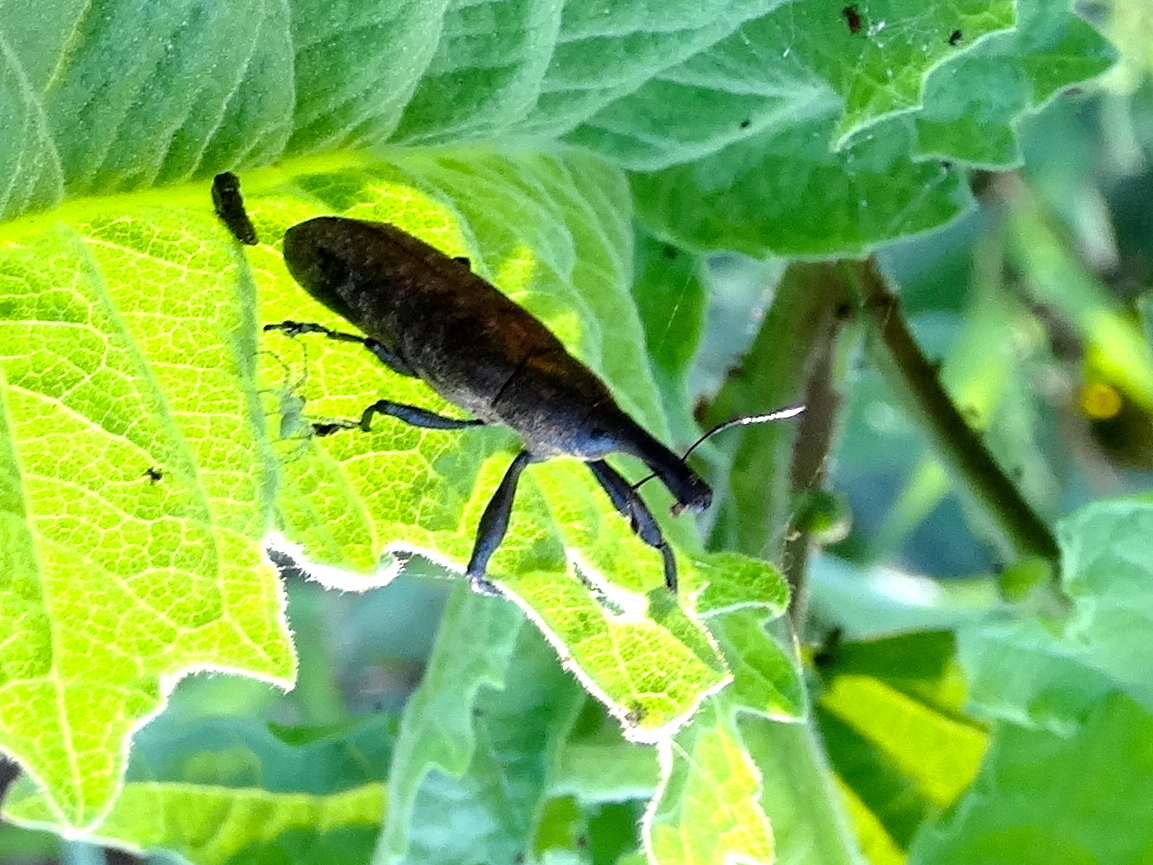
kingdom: Animalia
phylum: Arthropoda
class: Insecta
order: Coleoptera
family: Curculionidae
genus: Lixus
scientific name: Lixus
